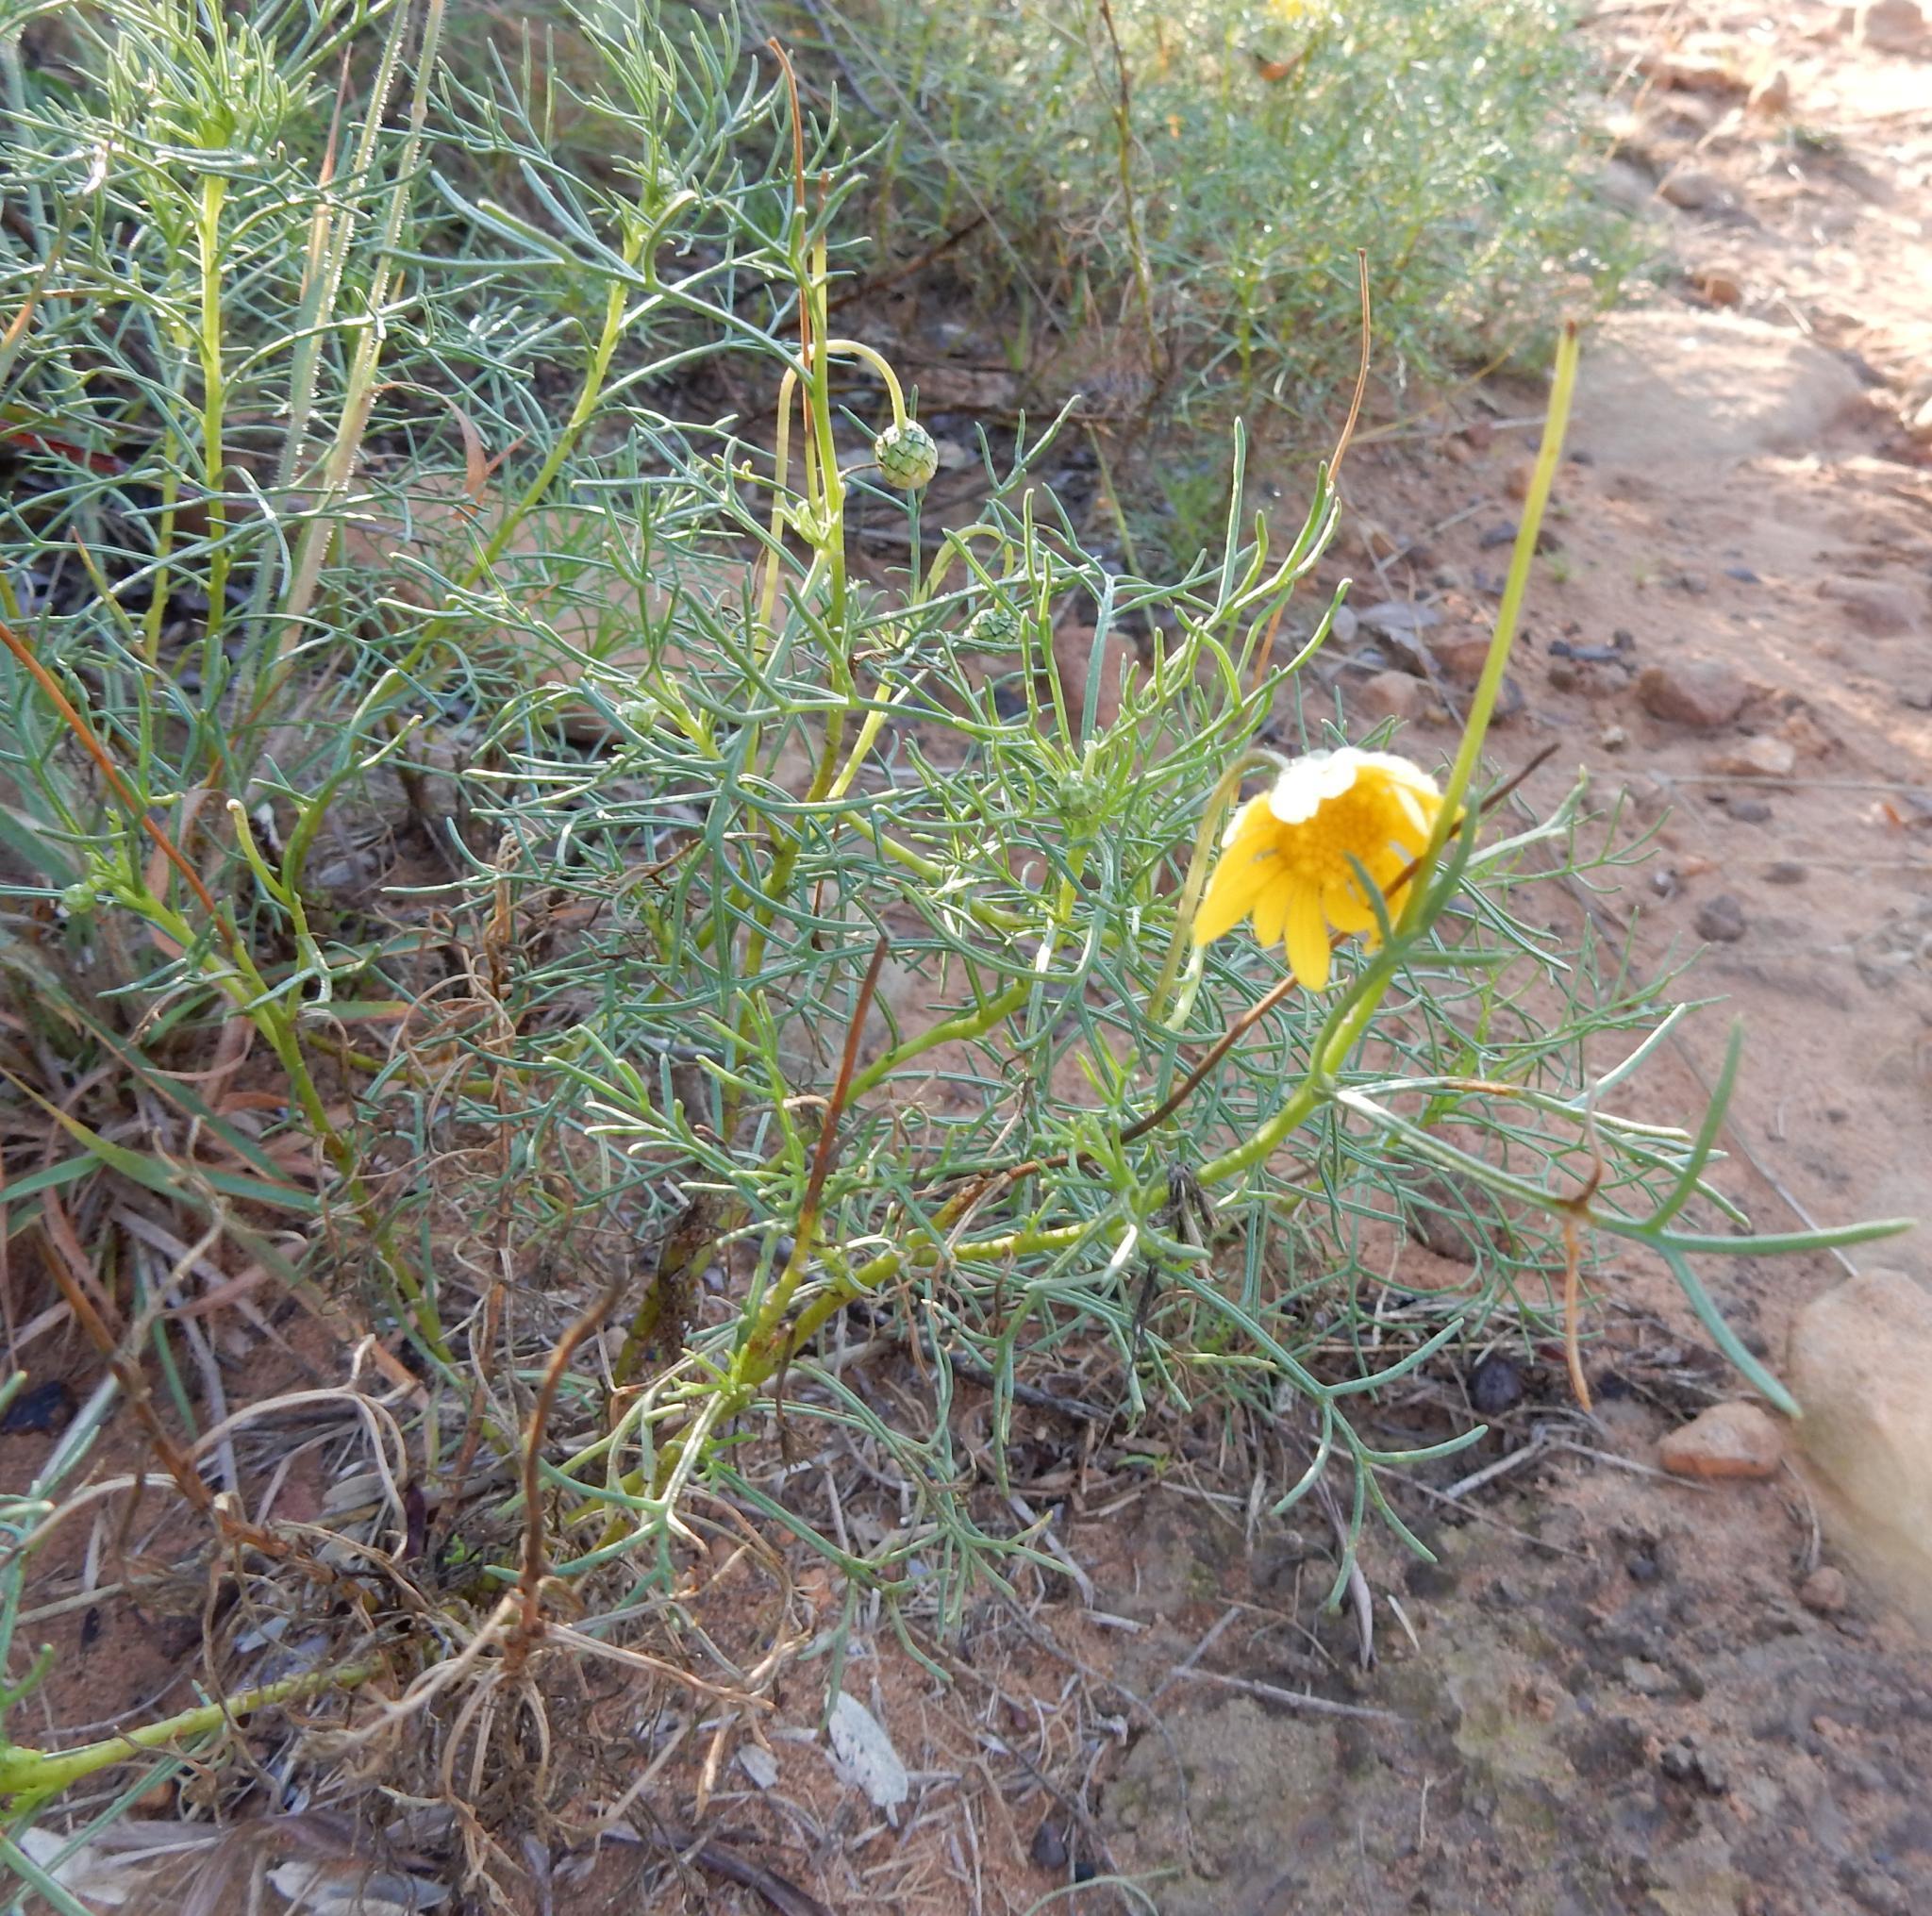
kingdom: Plantae
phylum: Tracheophyta
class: Magnoliopsida
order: Asterales
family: Asteraceae
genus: Ursinia
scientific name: Ursinia nana
